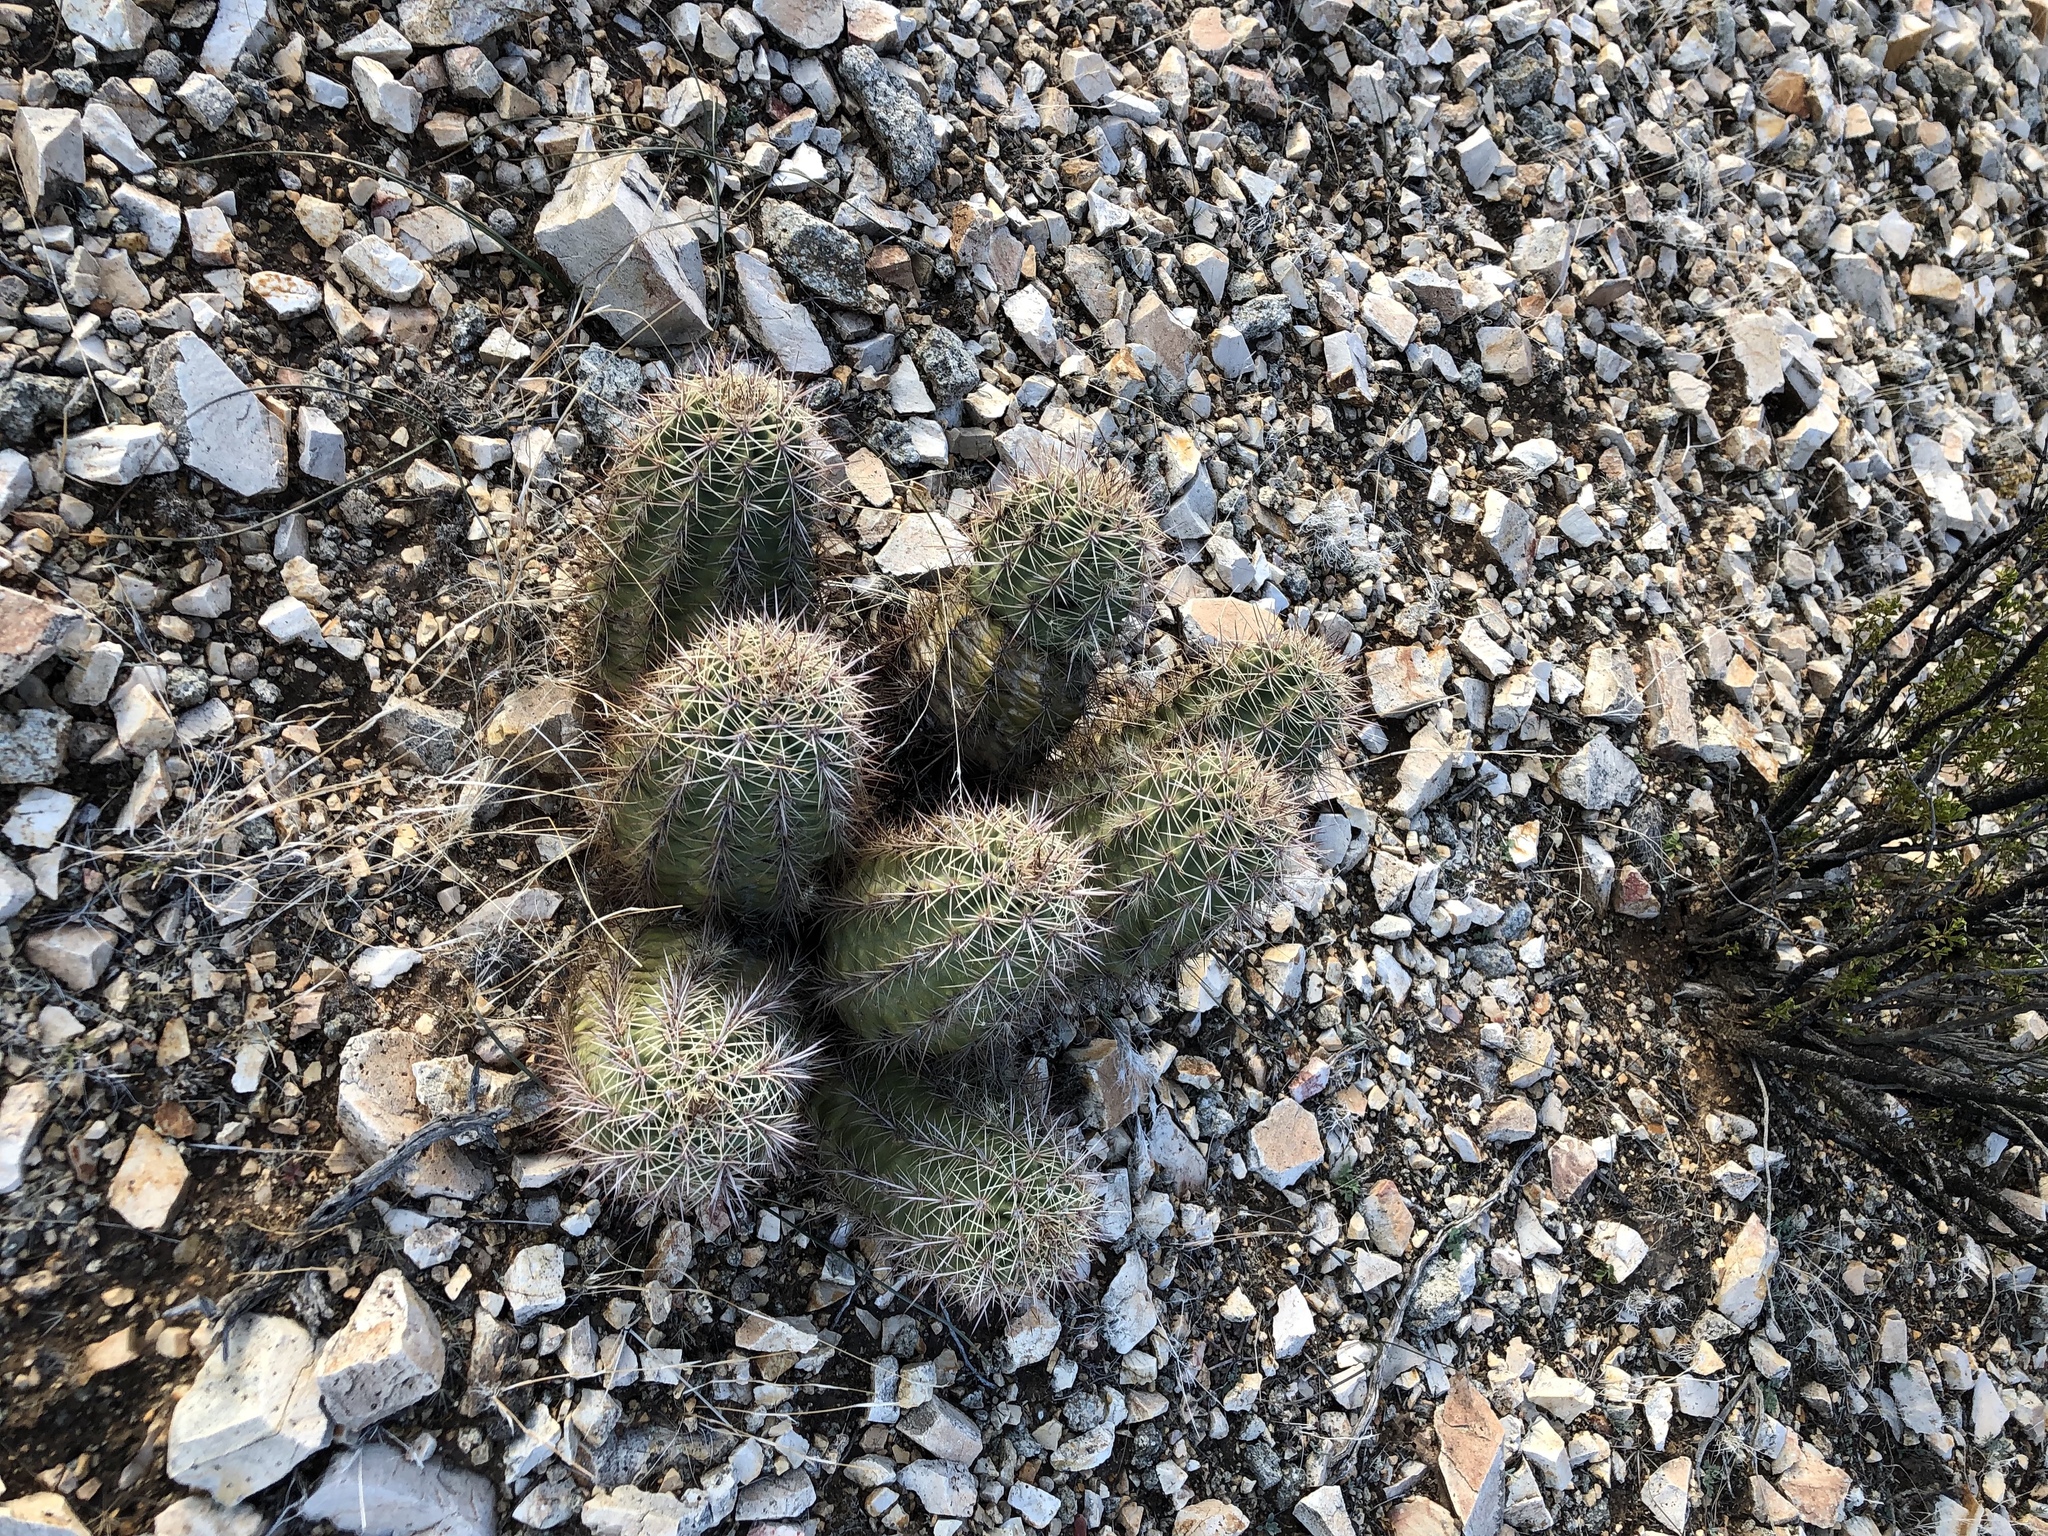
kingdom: Plantae
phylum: Tracheophyta
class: Magnoliopsida
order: Caryophyllales
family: Cactaceae
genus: Echinocereus
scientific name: Echinocereus roetteri
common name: Lloyd's hedgehog cactus
